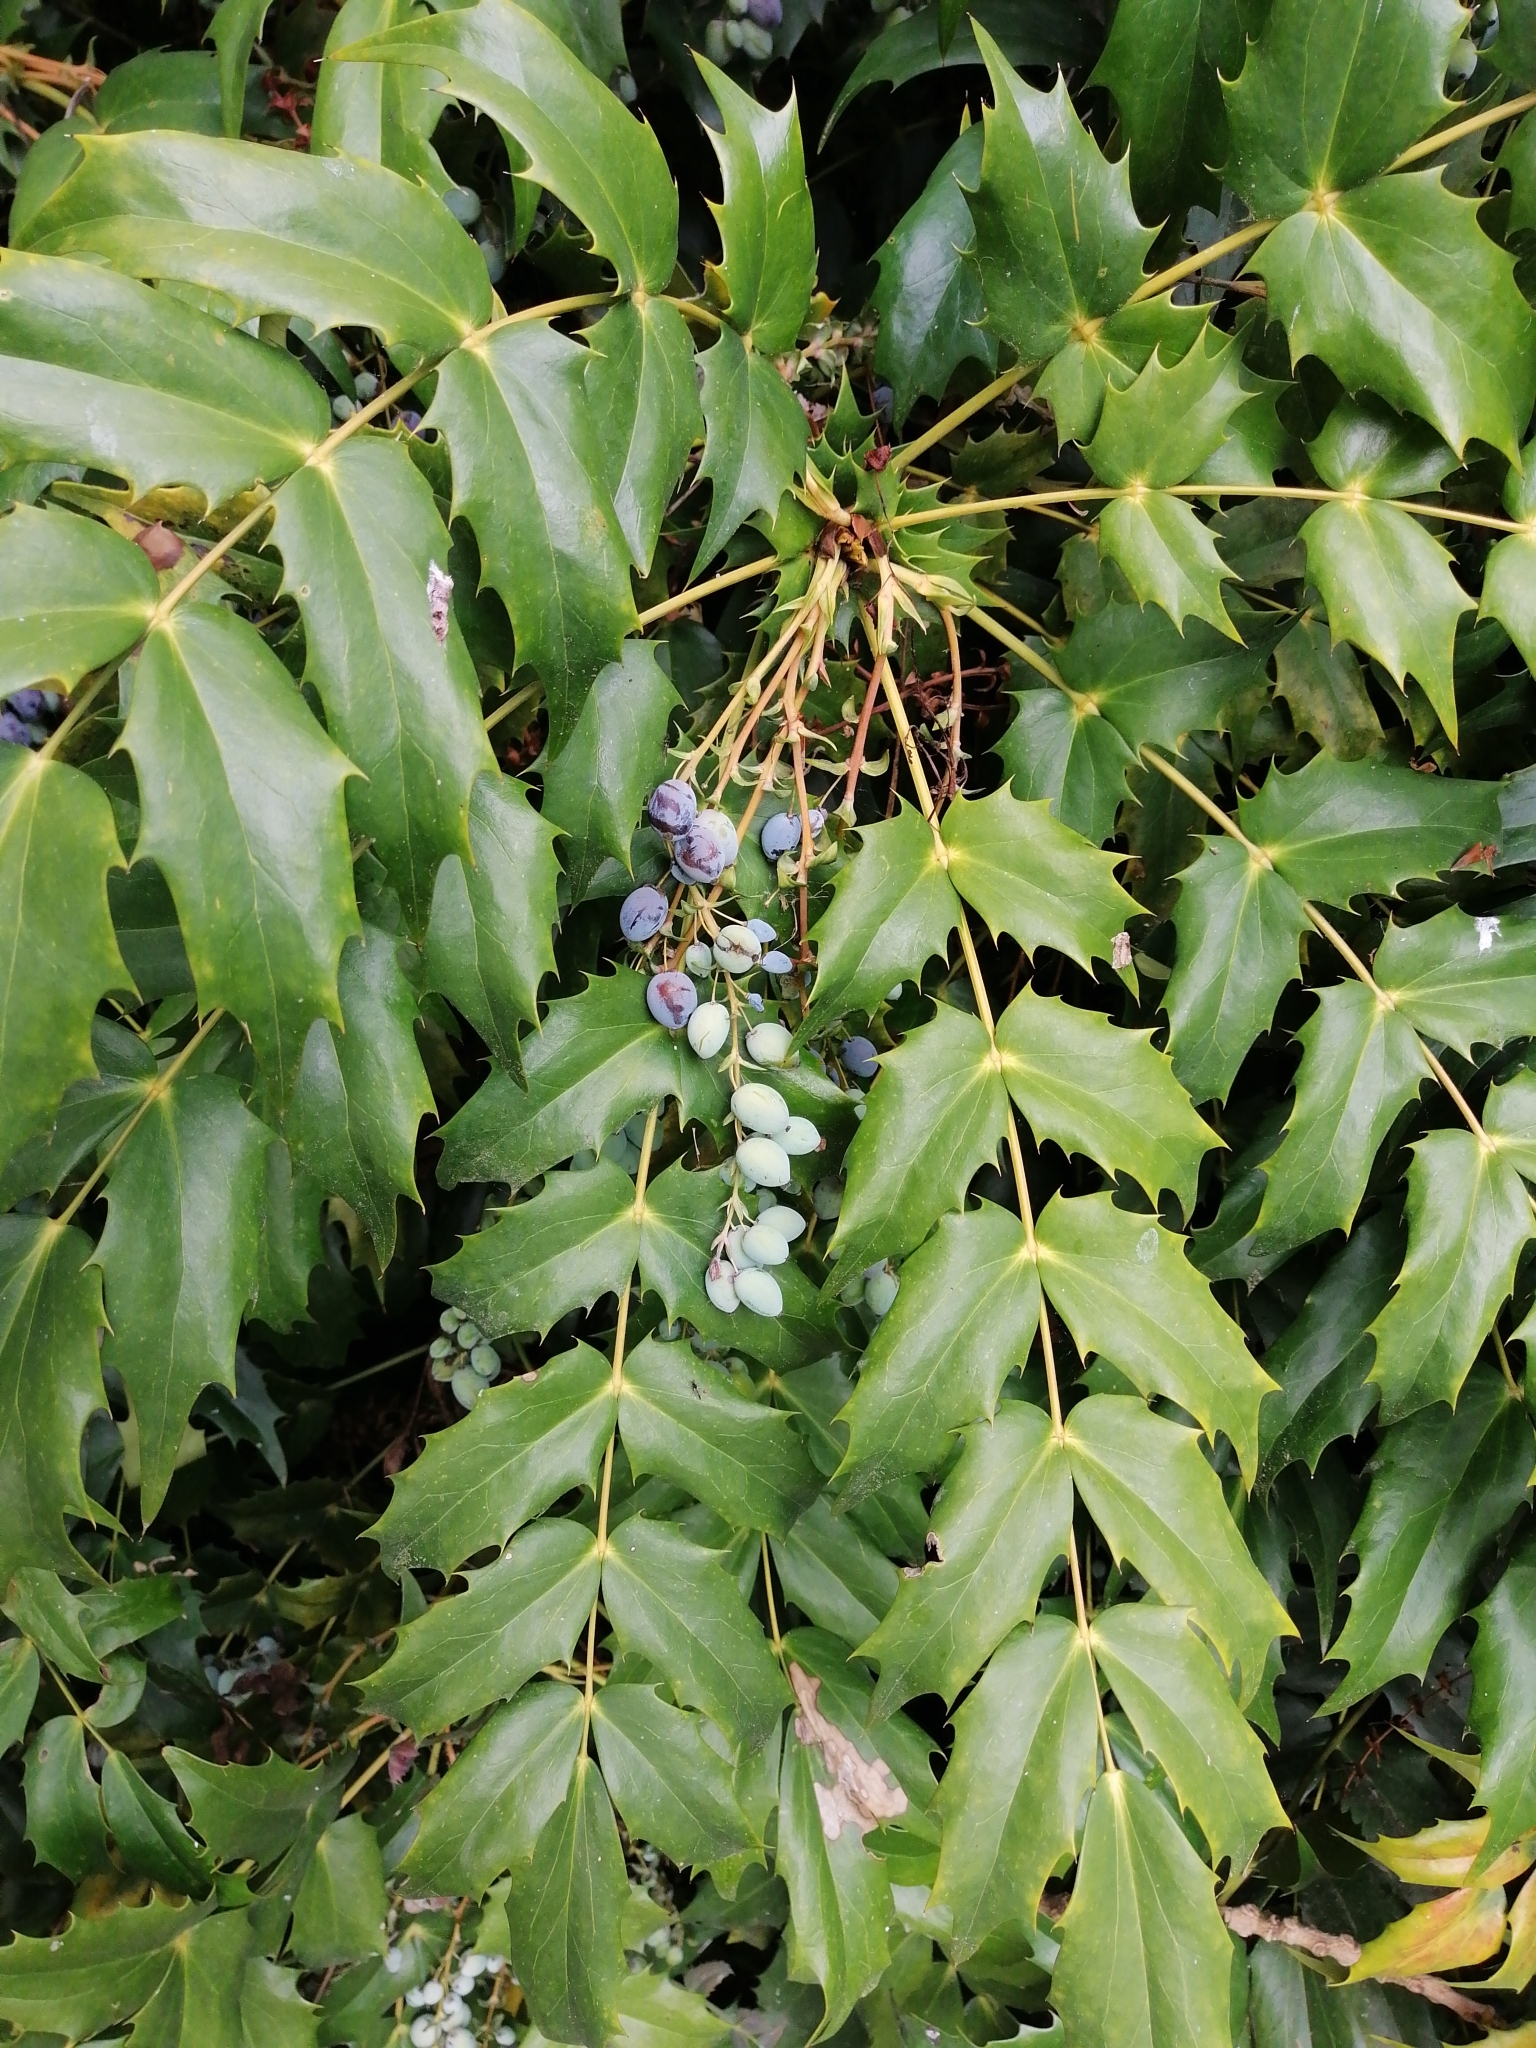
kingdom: Plantae
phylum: Tracheophyta
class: Magnoliopsida
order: Ranunculales
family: Berberidaceae
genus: Berberis
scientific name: Berberis hortensis
